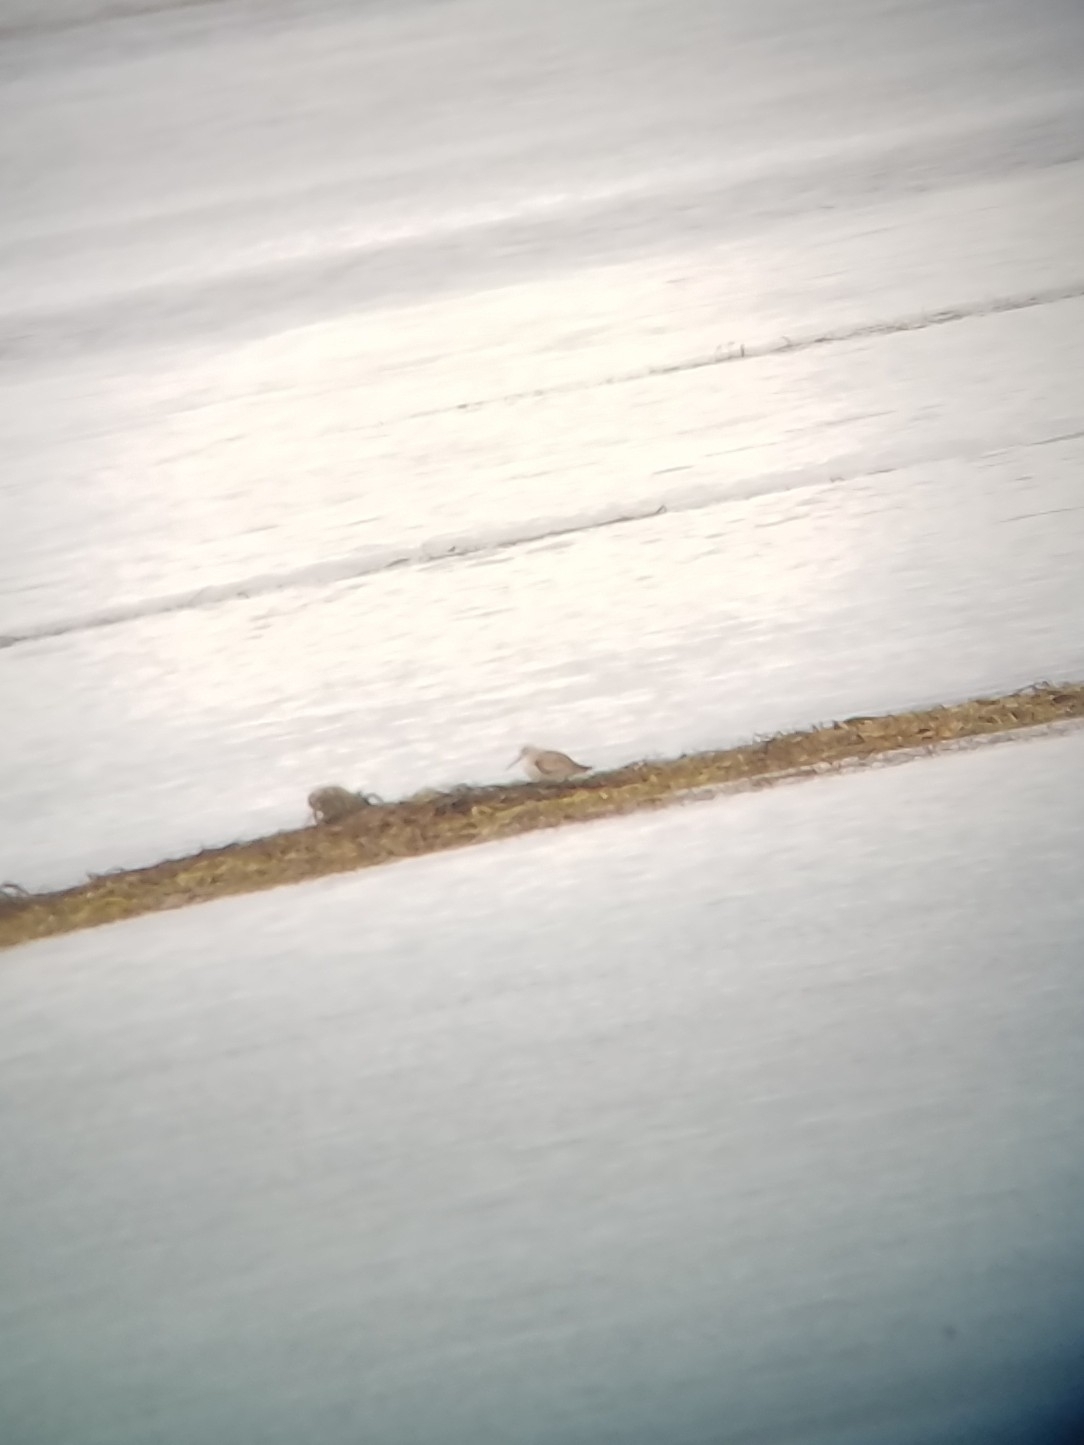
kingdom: Animalia
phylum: Chordata
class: Aves
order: Charadriiformes
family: Scolopacidae
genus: Calidris
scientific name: Calidris ferruginea
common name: Curlew sandpiper
